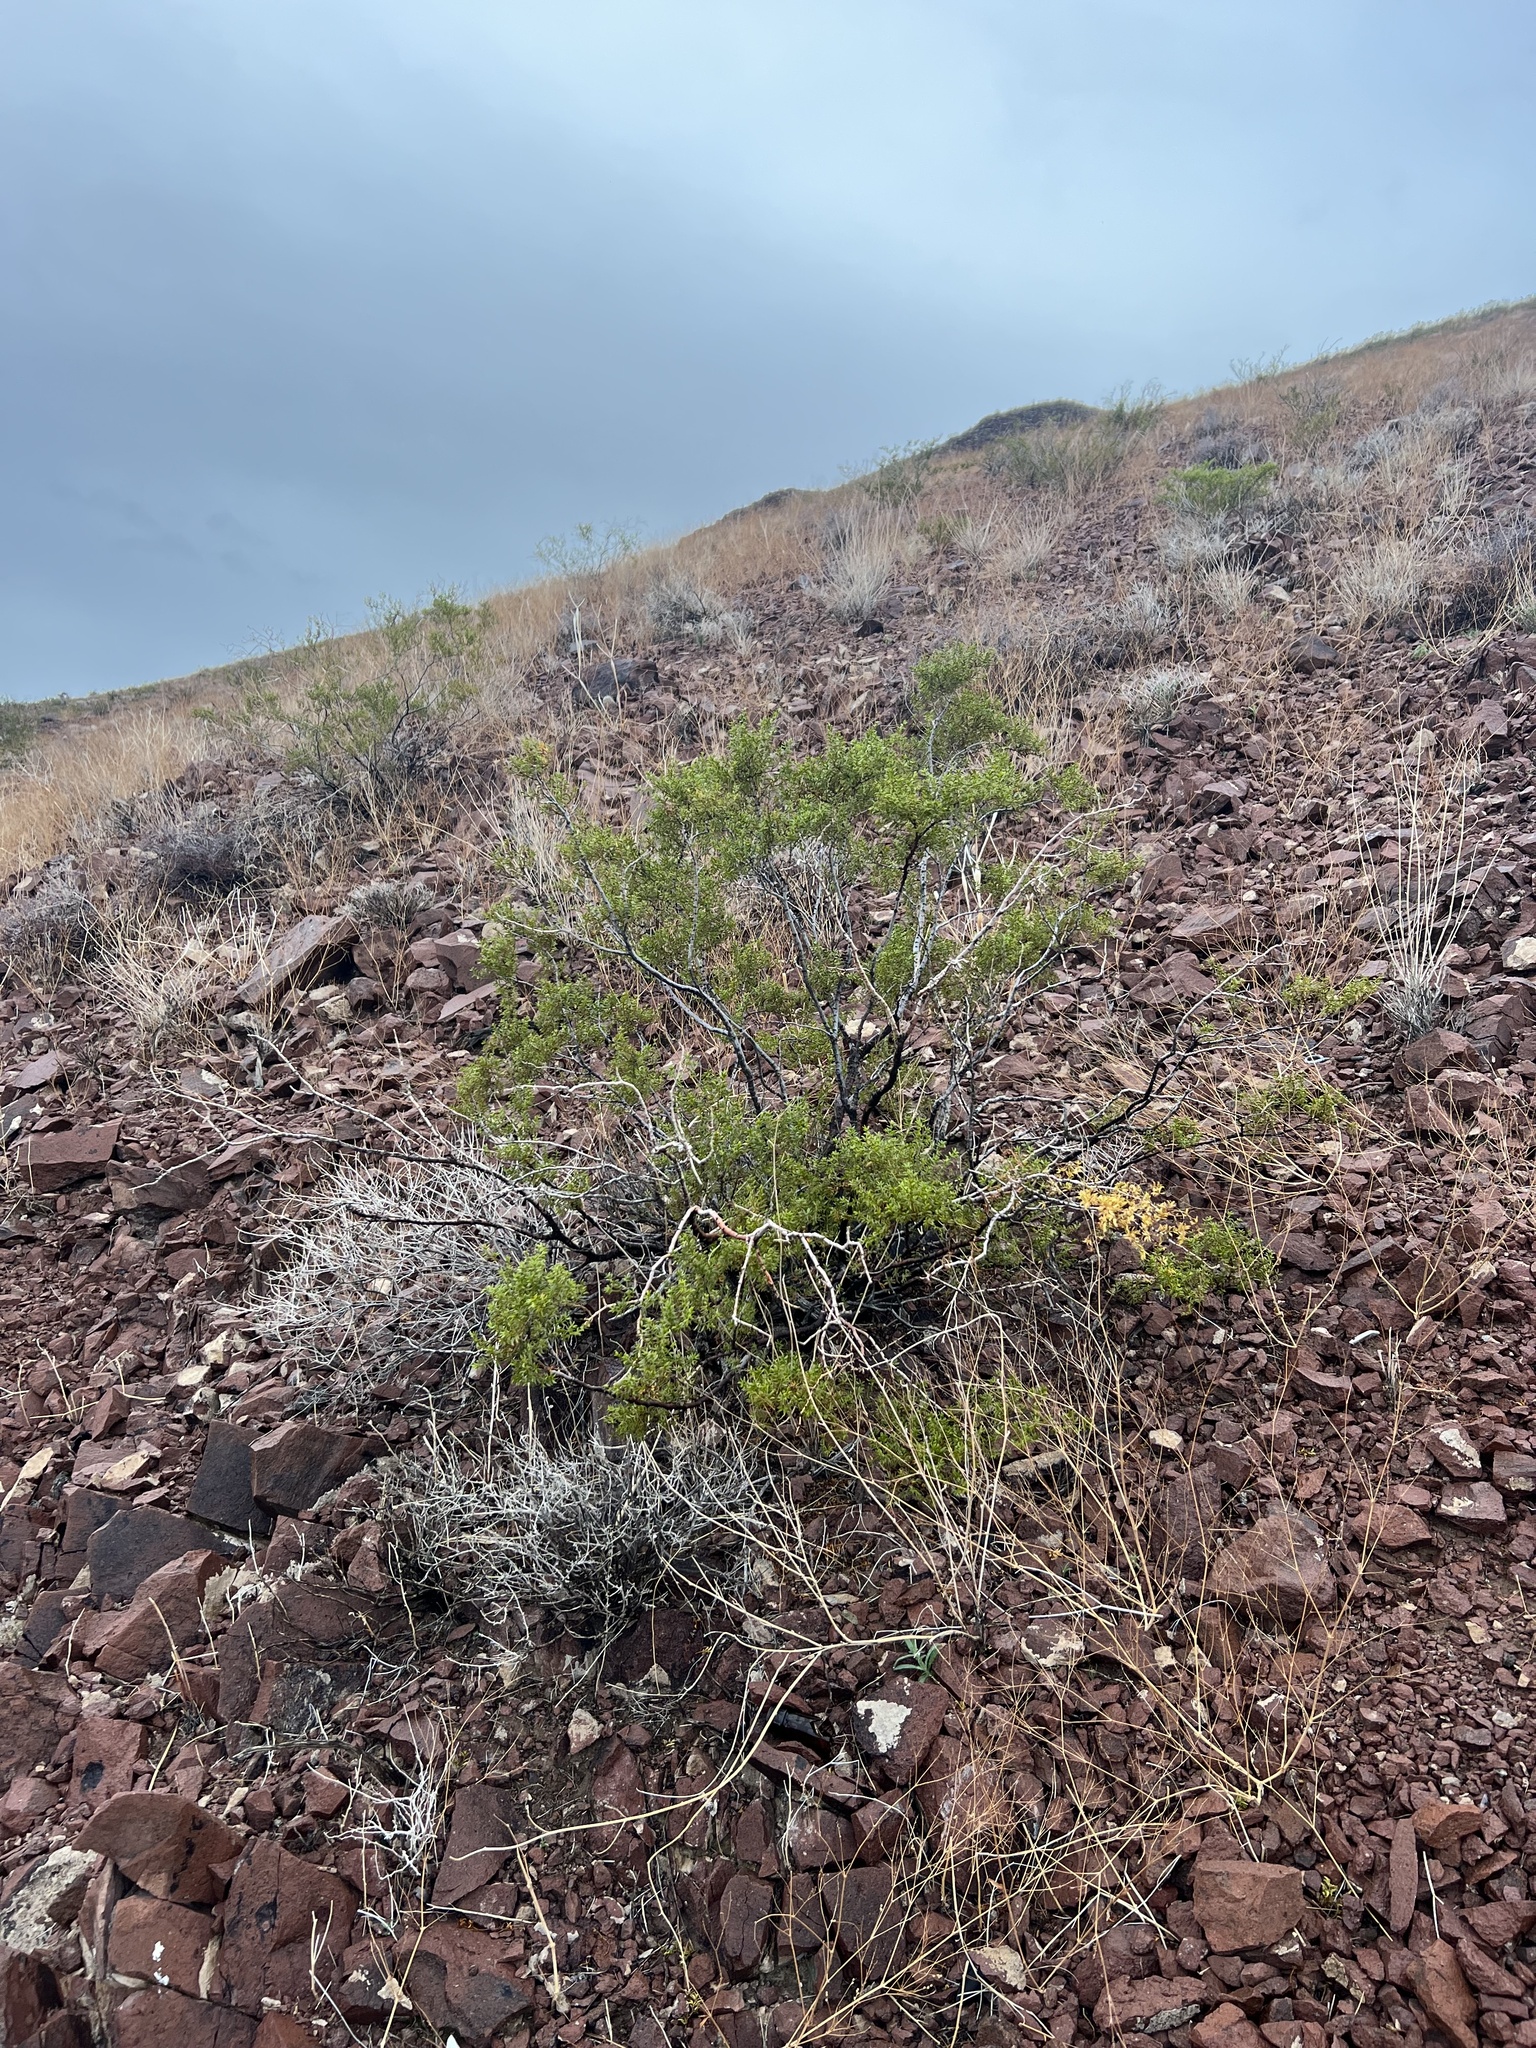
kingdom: Plantae
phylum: Tracheophyta
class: Magnoliopsida
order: Zygophyllales
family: Zygophyllaceae
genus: Larrea
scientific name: Larrea tridentata
